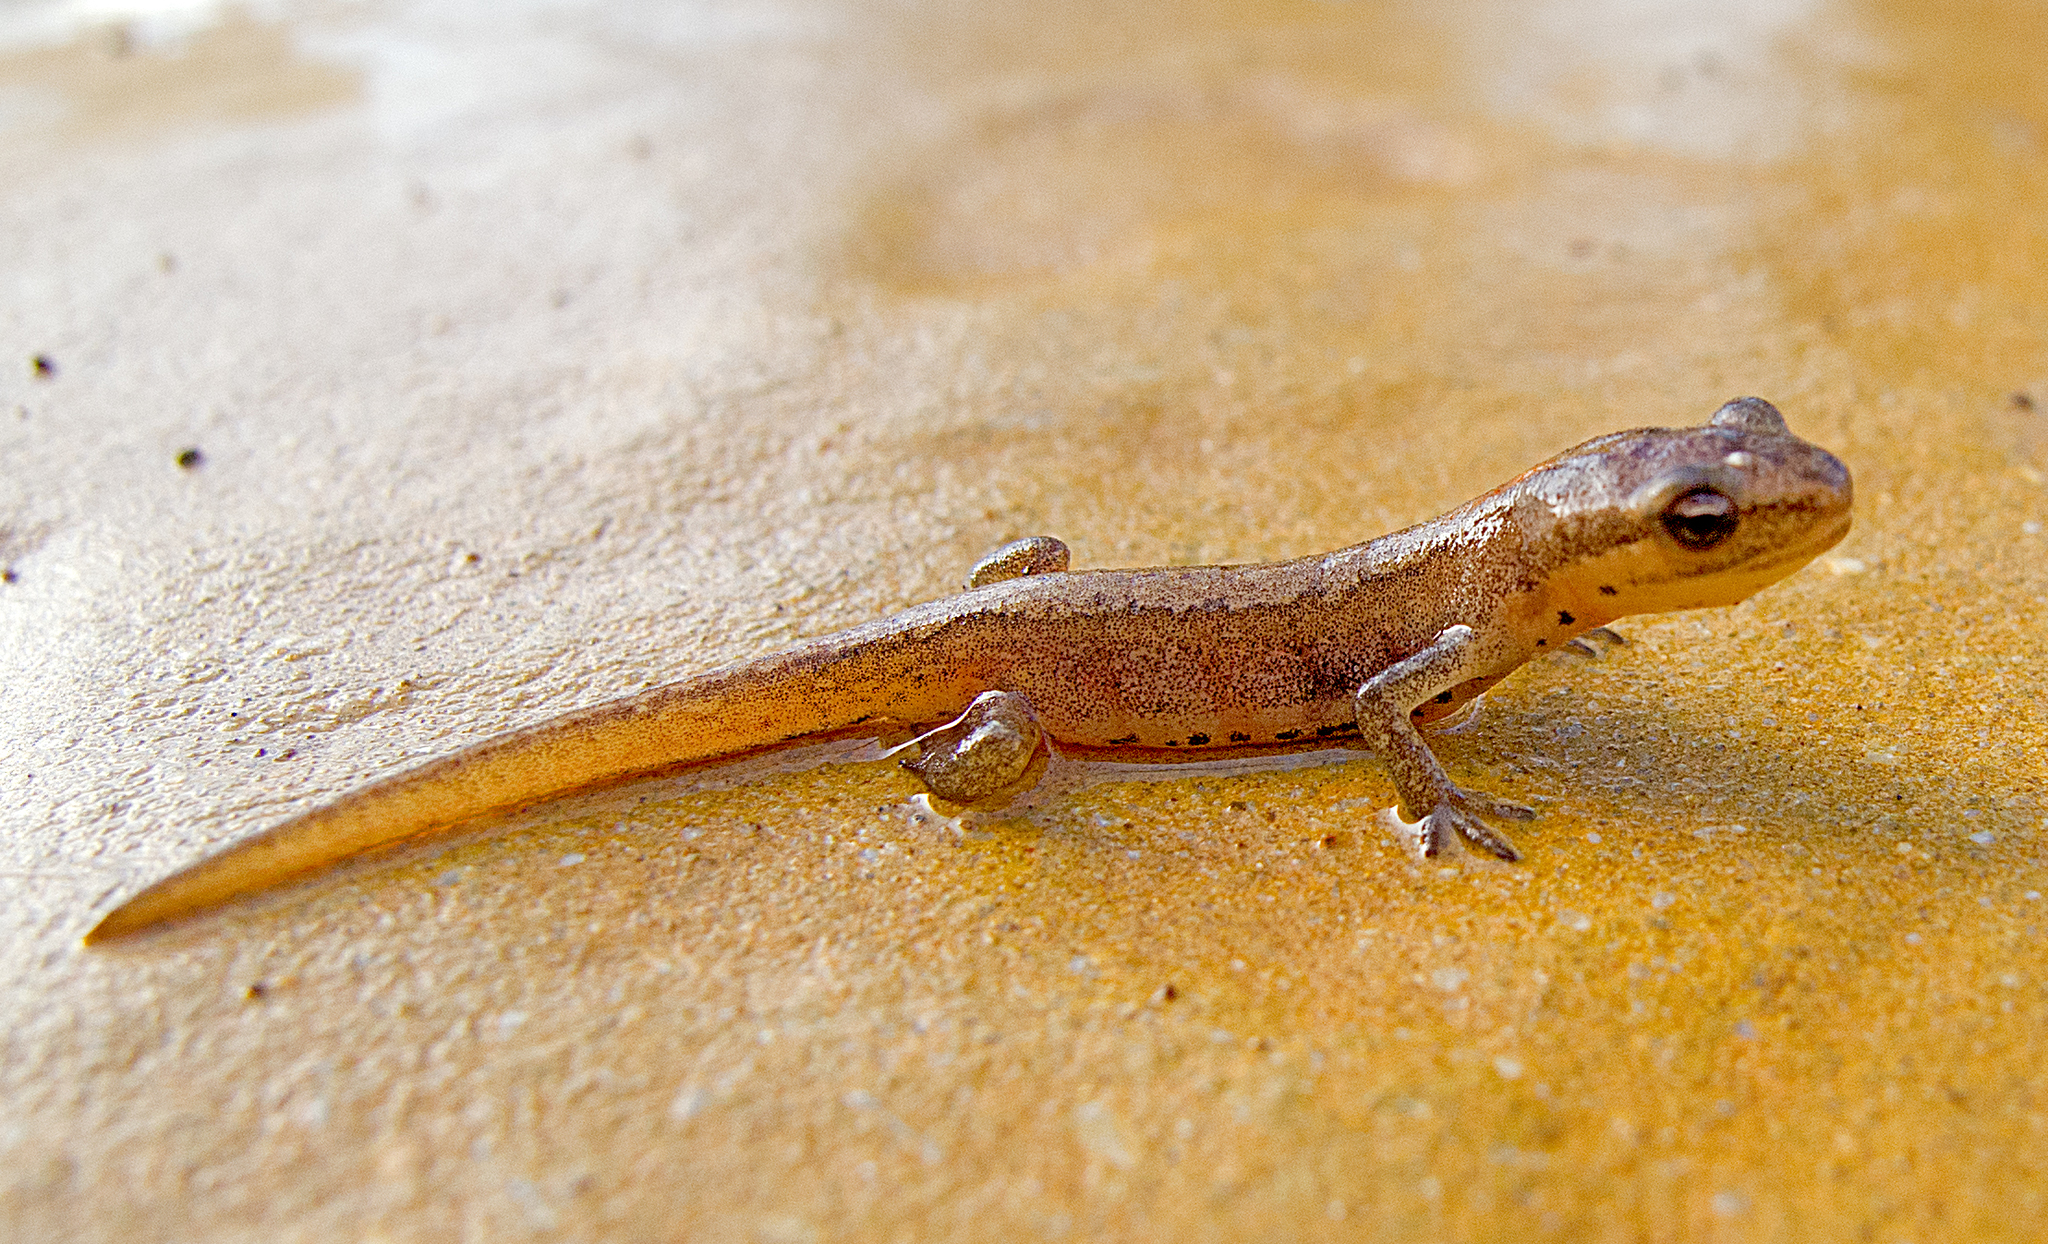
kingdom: Animalia
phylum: Chordata
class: Amphibia
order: Caudata
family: Salamandridae
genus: Lissotriton
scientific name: Lissotriton schmidtleri
